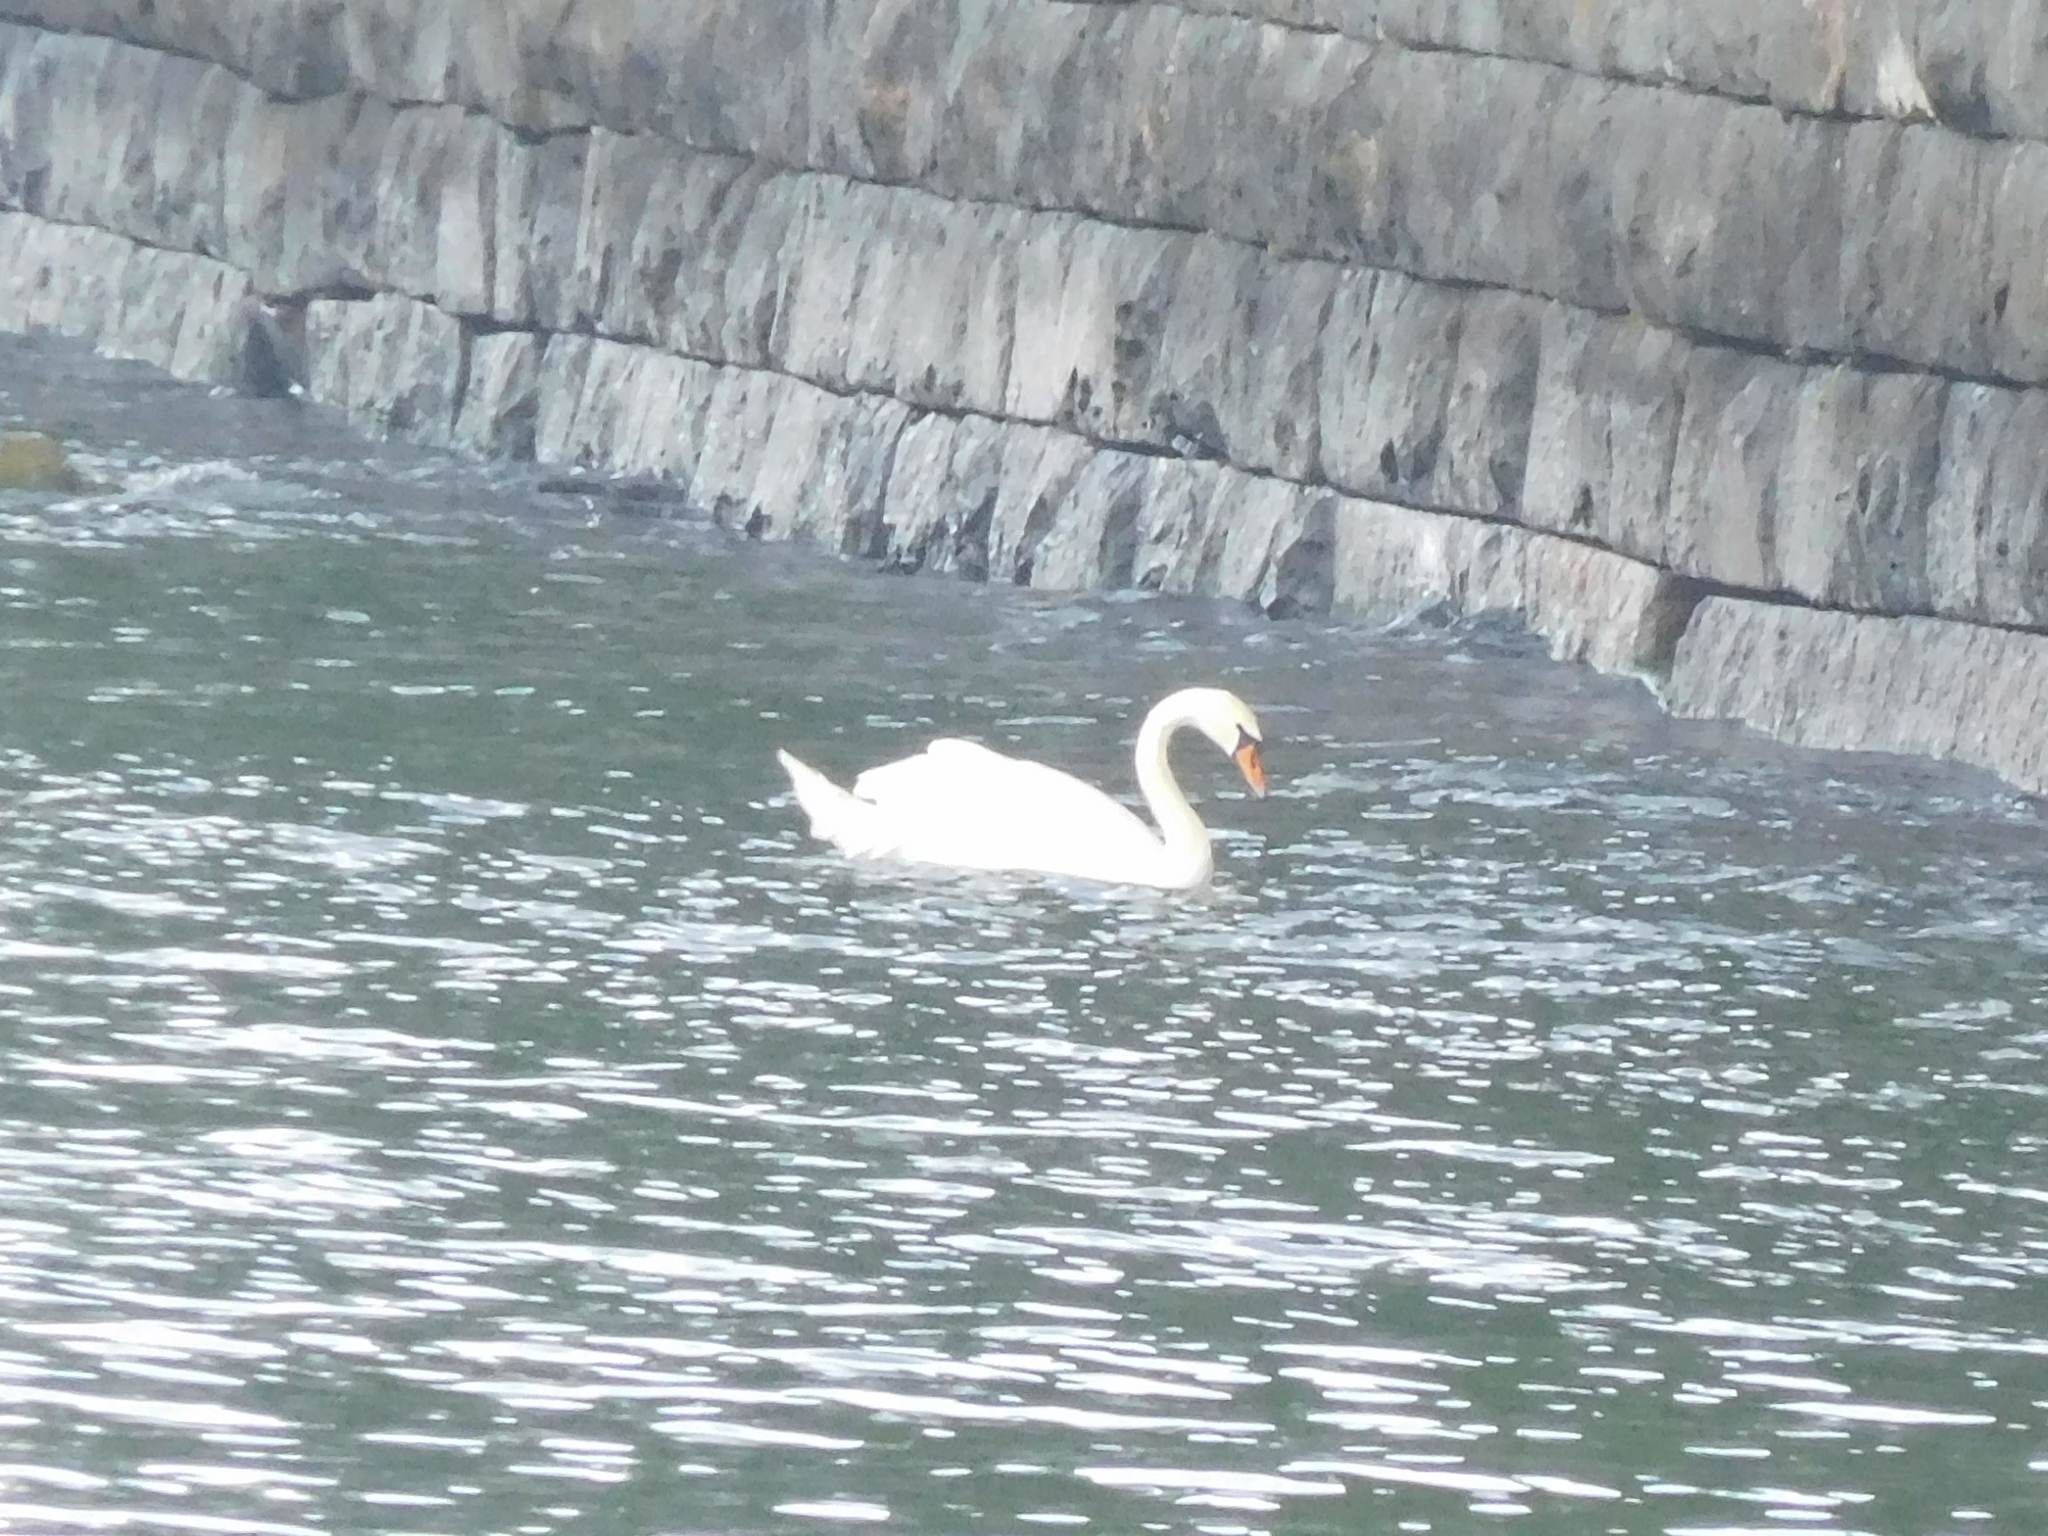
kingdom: Animalia
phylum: Chordata
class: Aves
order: Anseriformes
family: Anatidae
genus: Cygnus
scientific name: Cygnus olor
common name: Mute swan
